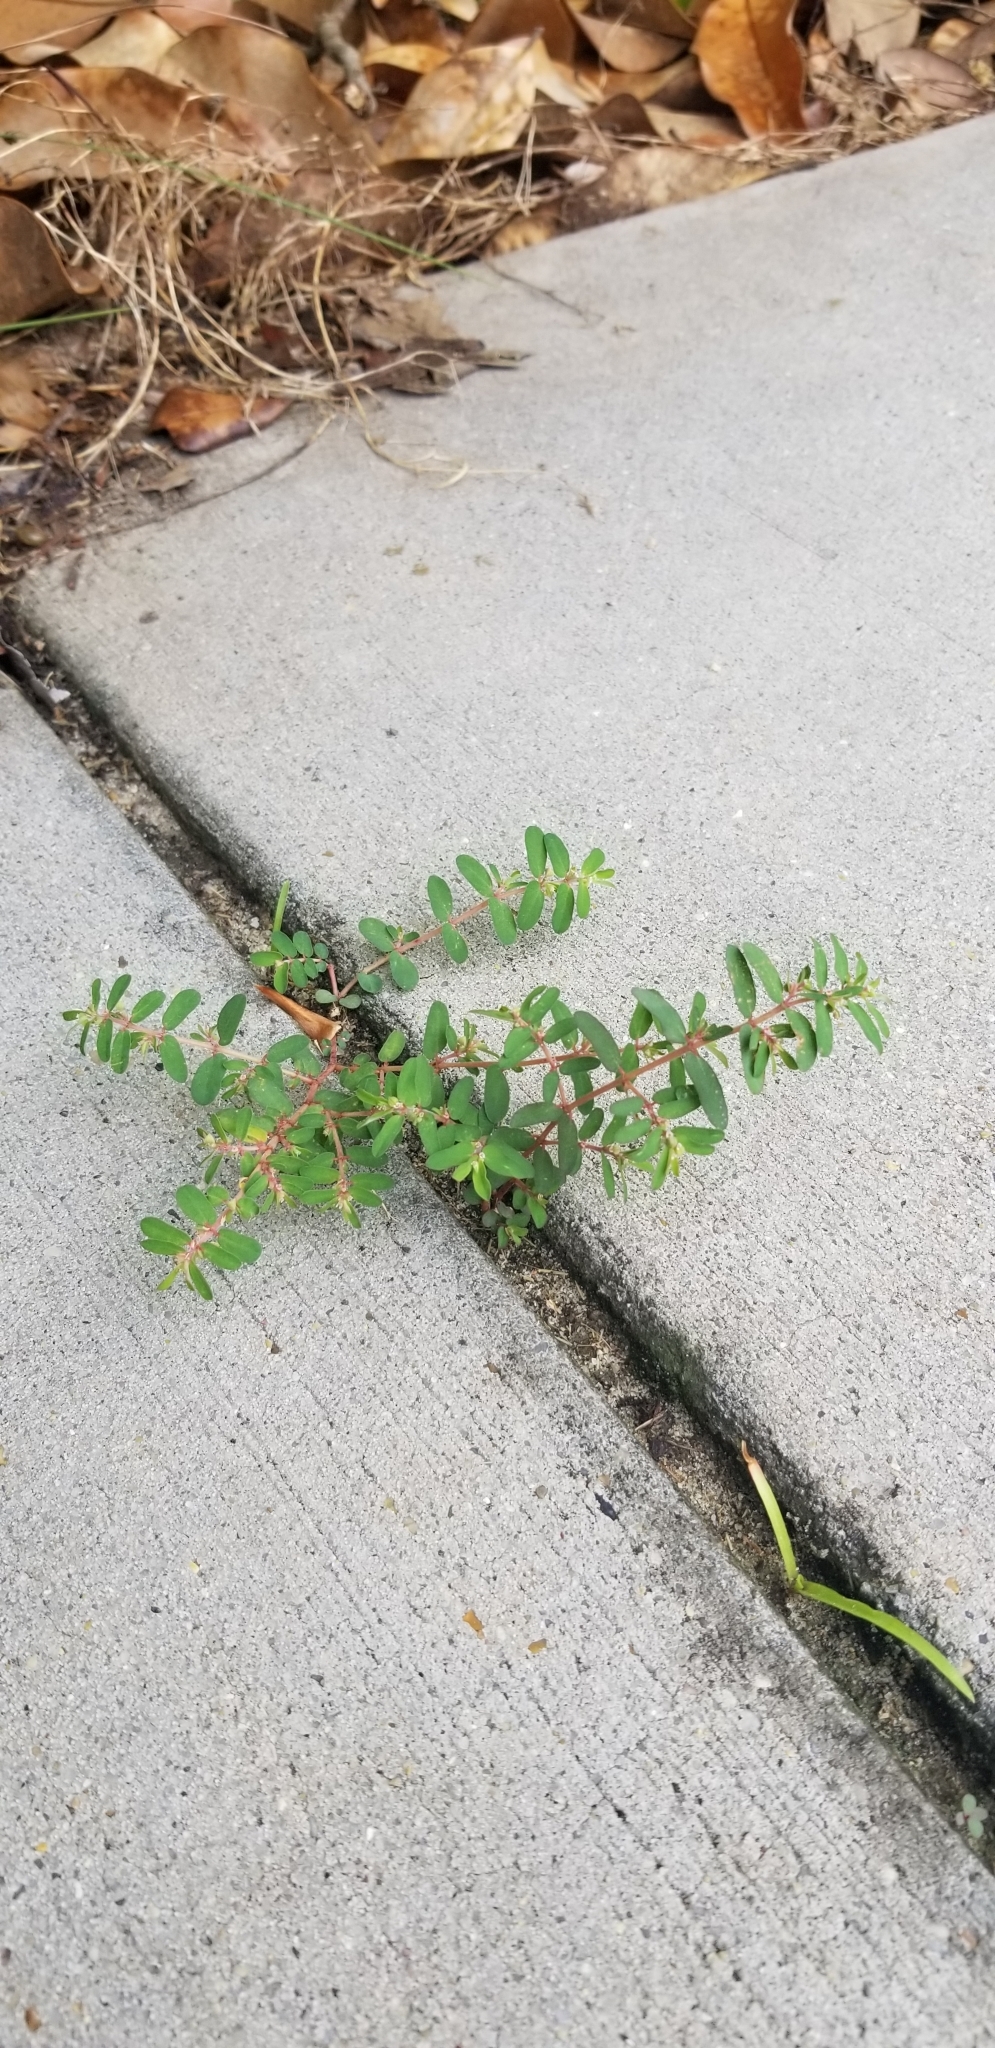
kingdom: Plantae
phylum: Tracheophyta
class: Magnoliopsida
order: Malpighiales
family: Euphorbiaceae
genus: Euphorbia
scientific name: Euphorbia maculata
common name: Spotted spurge
